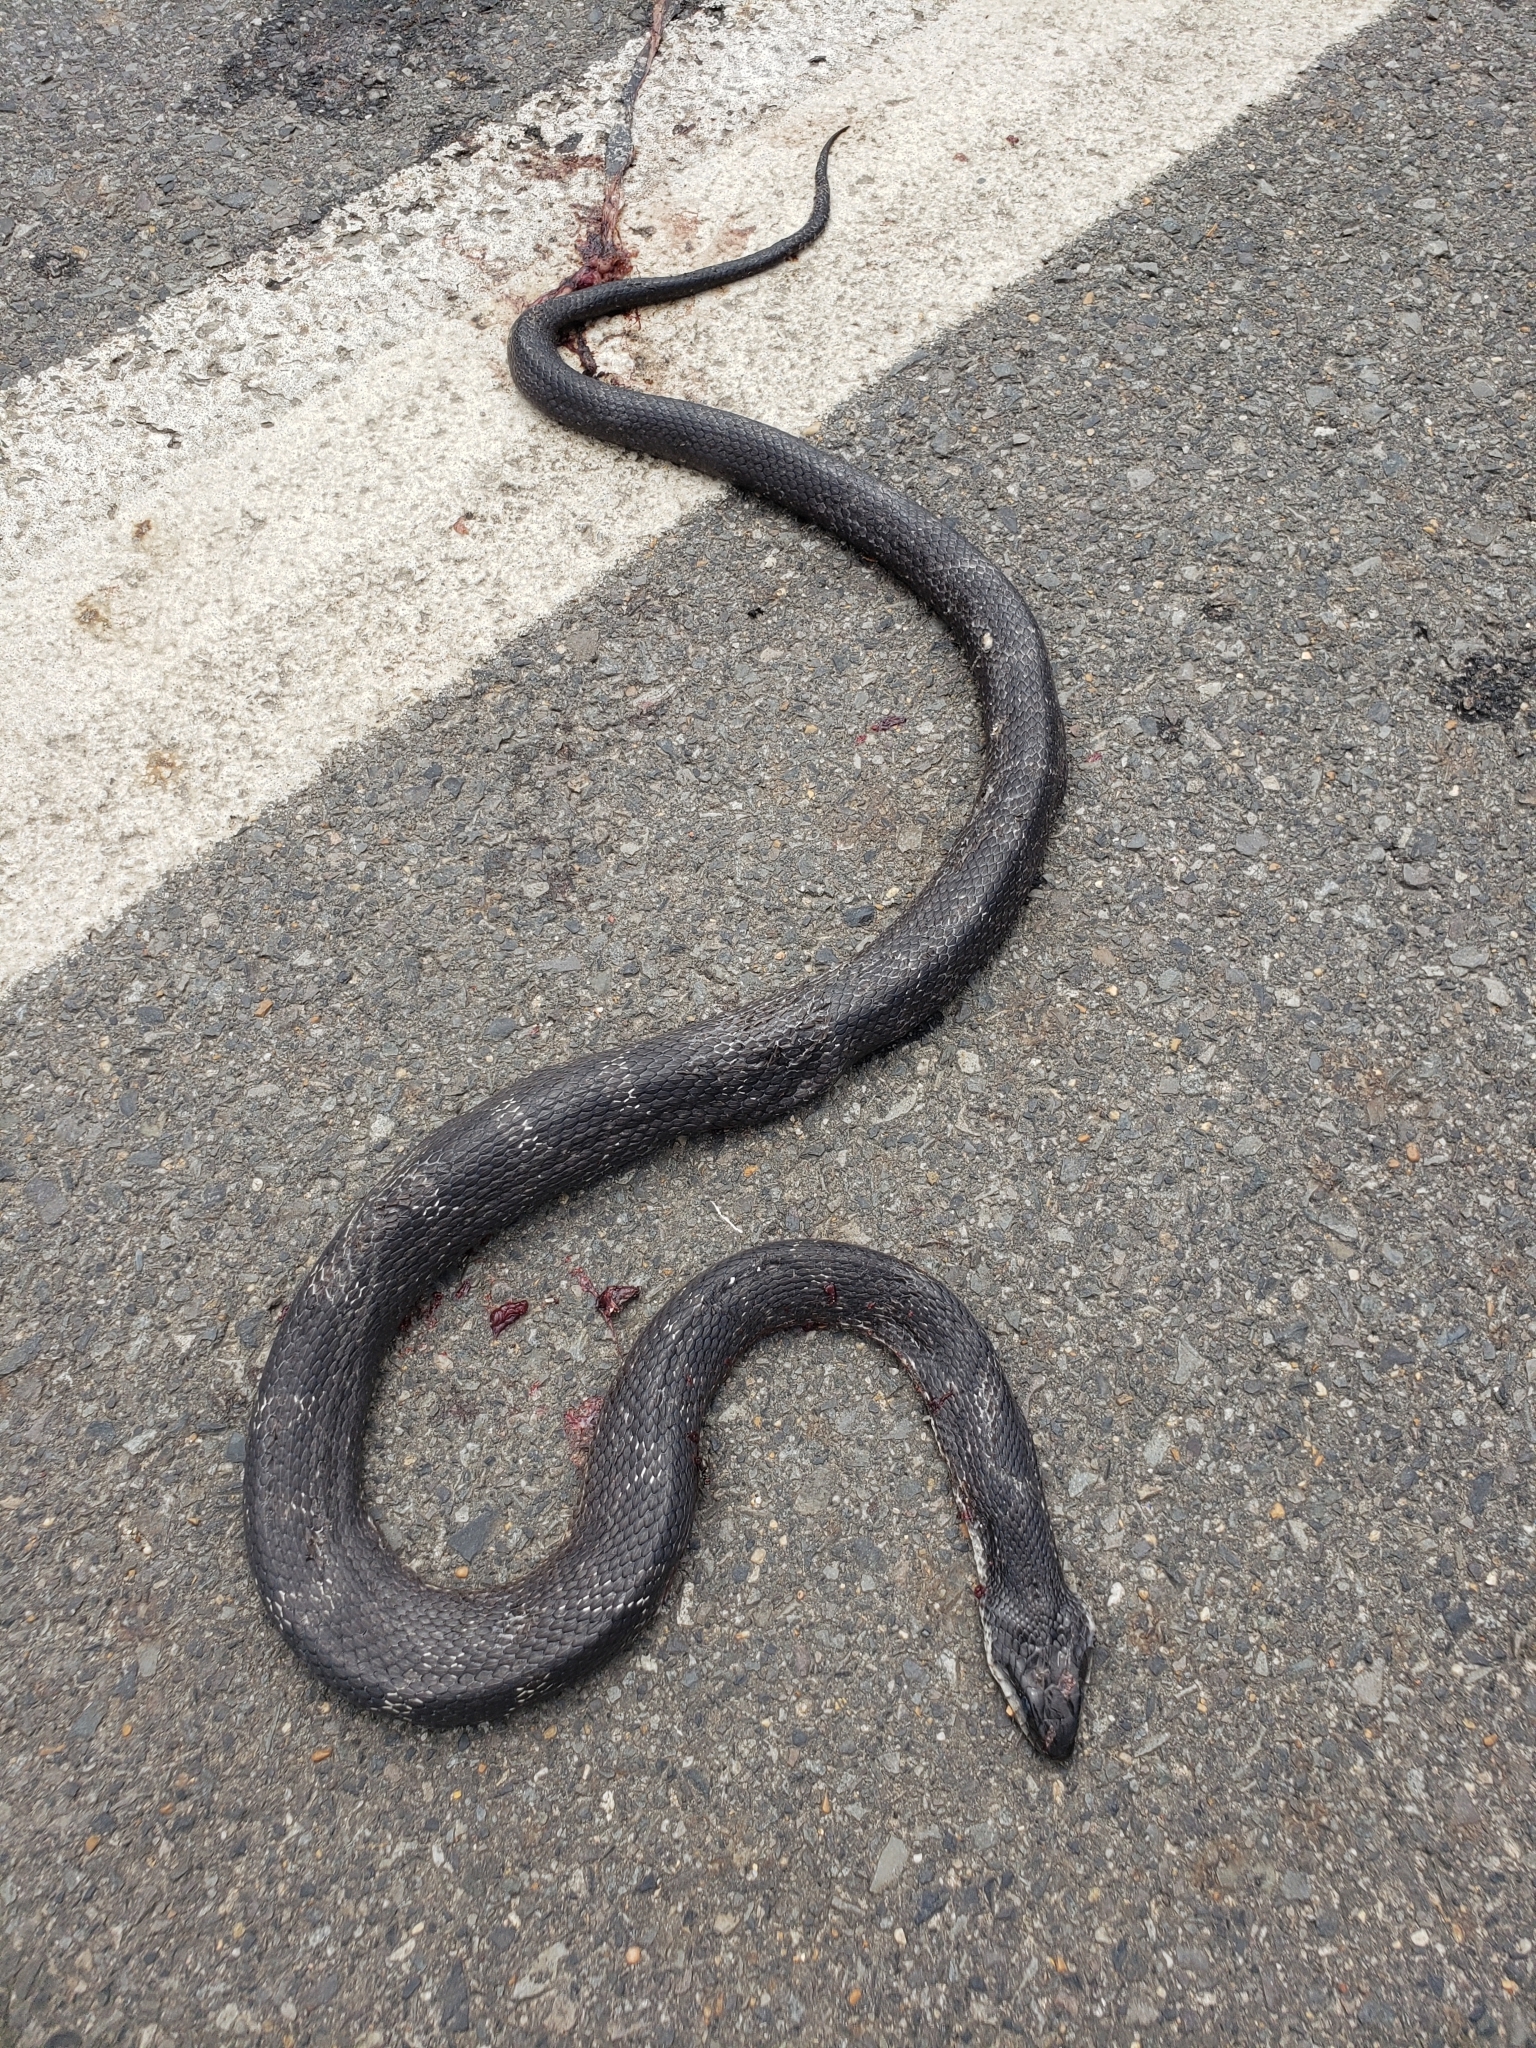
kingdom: Animalia
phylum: Chordata
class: Squamata
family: Colubridae
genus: Pantherophis
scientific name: Pantherophis obsoletus
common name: Black rat snake
